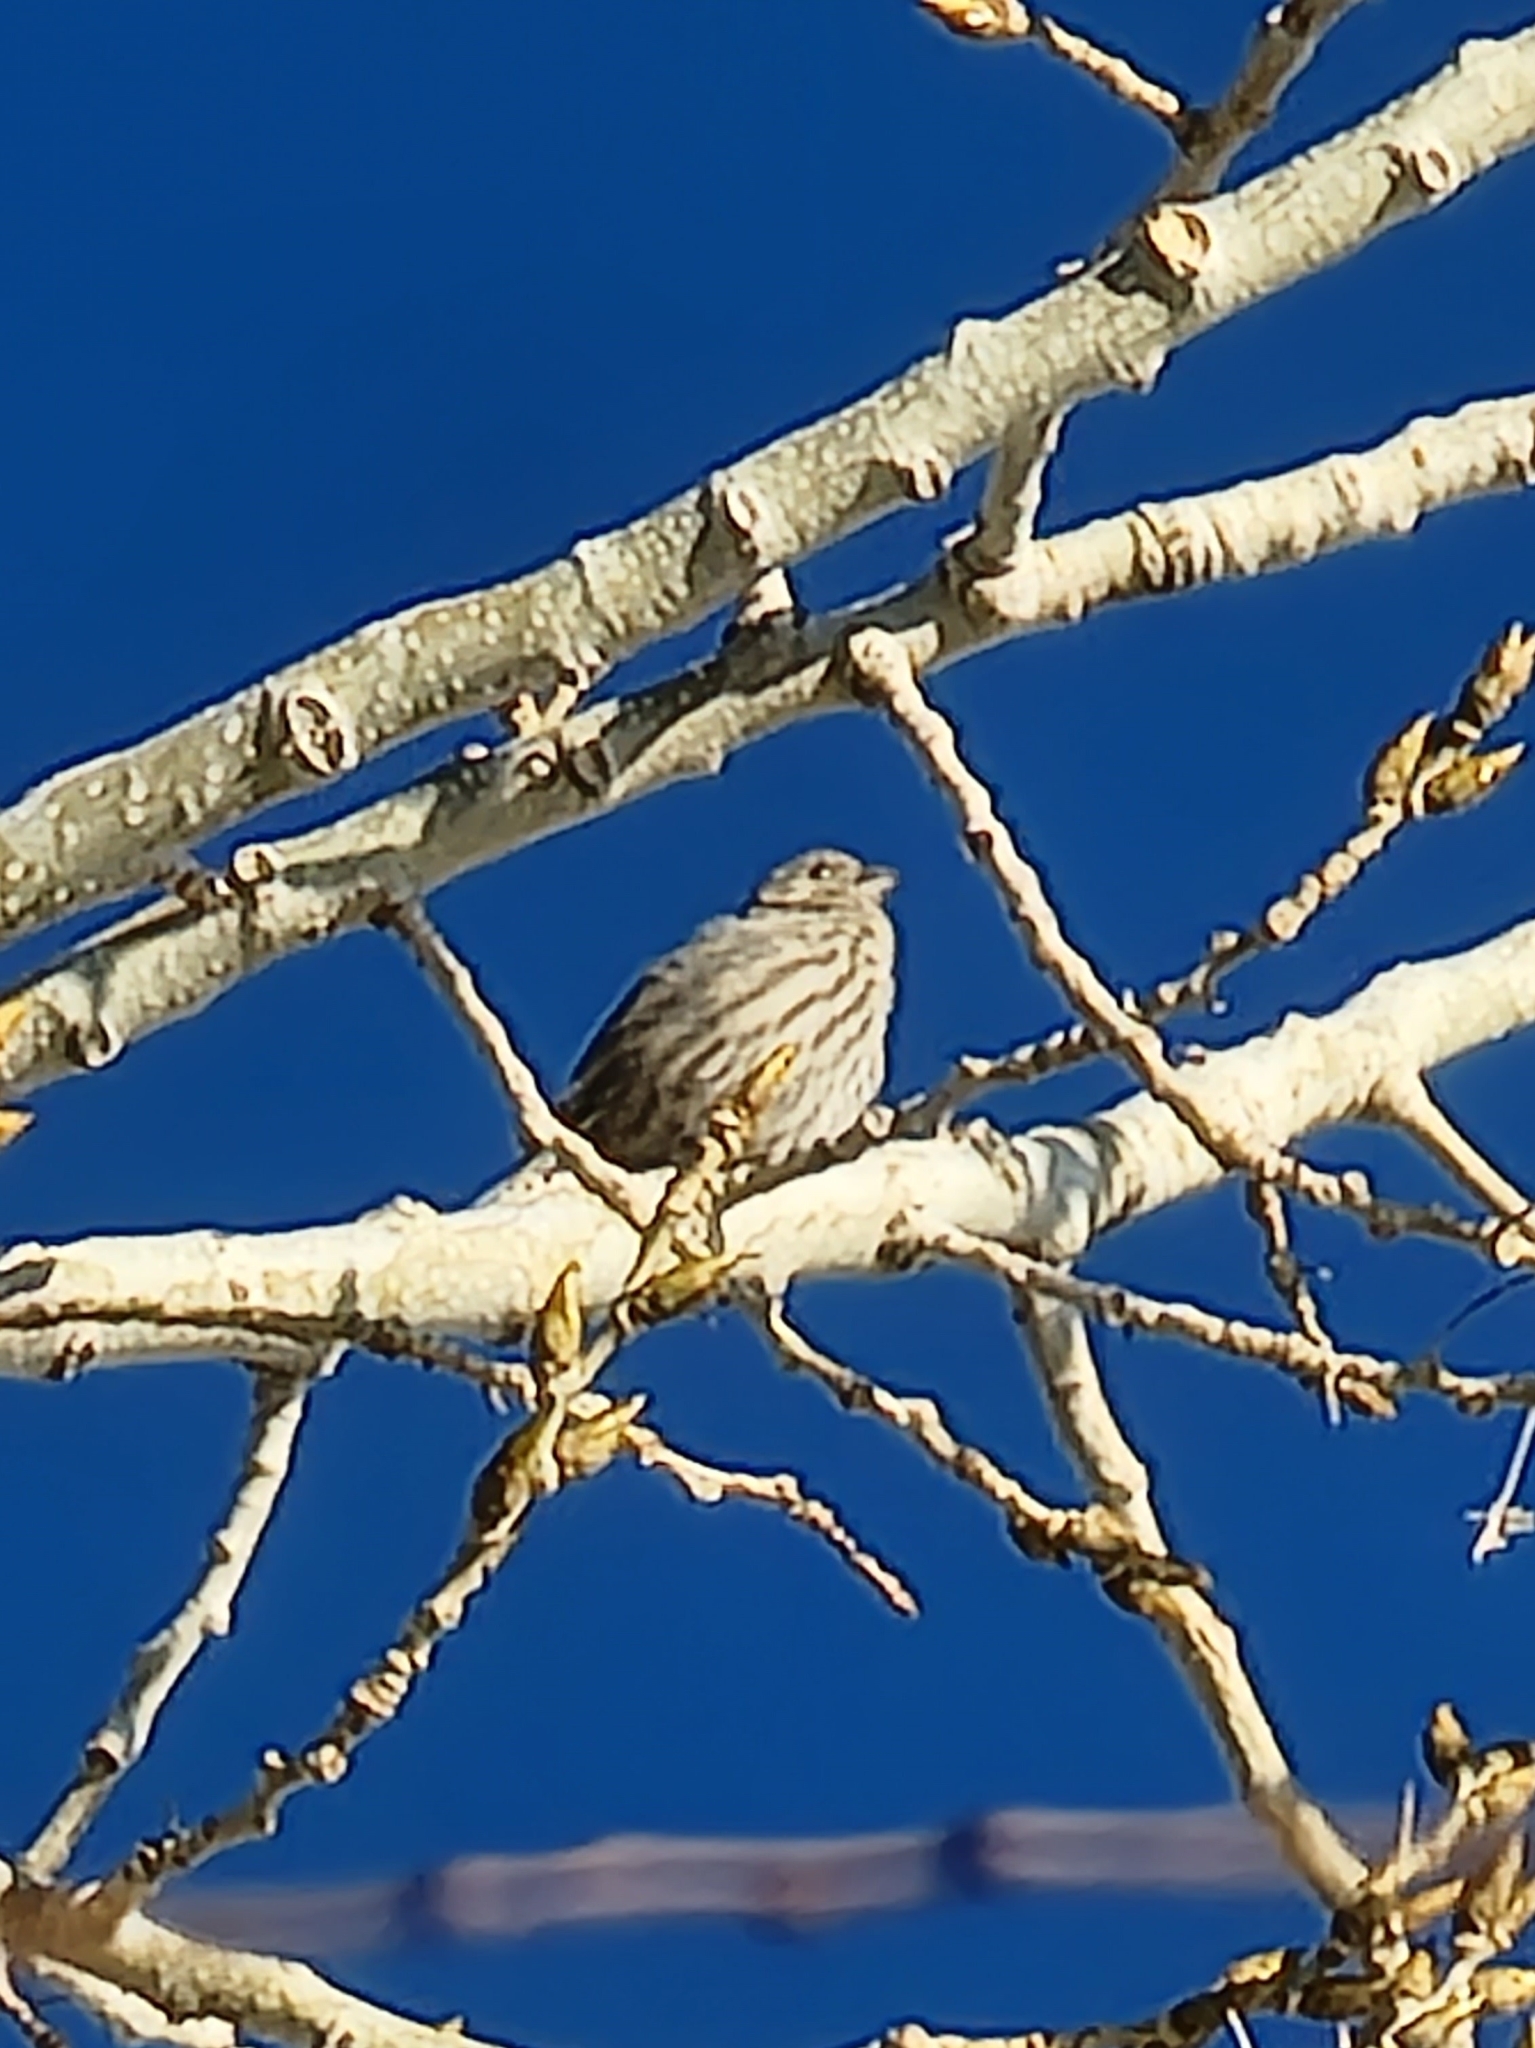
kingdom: Animalia
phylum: Chordata
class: Aves
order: Passeriformes
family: Fringillidae
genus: Haemorhous
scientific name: Haemorhous mexicanus
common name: House finch
